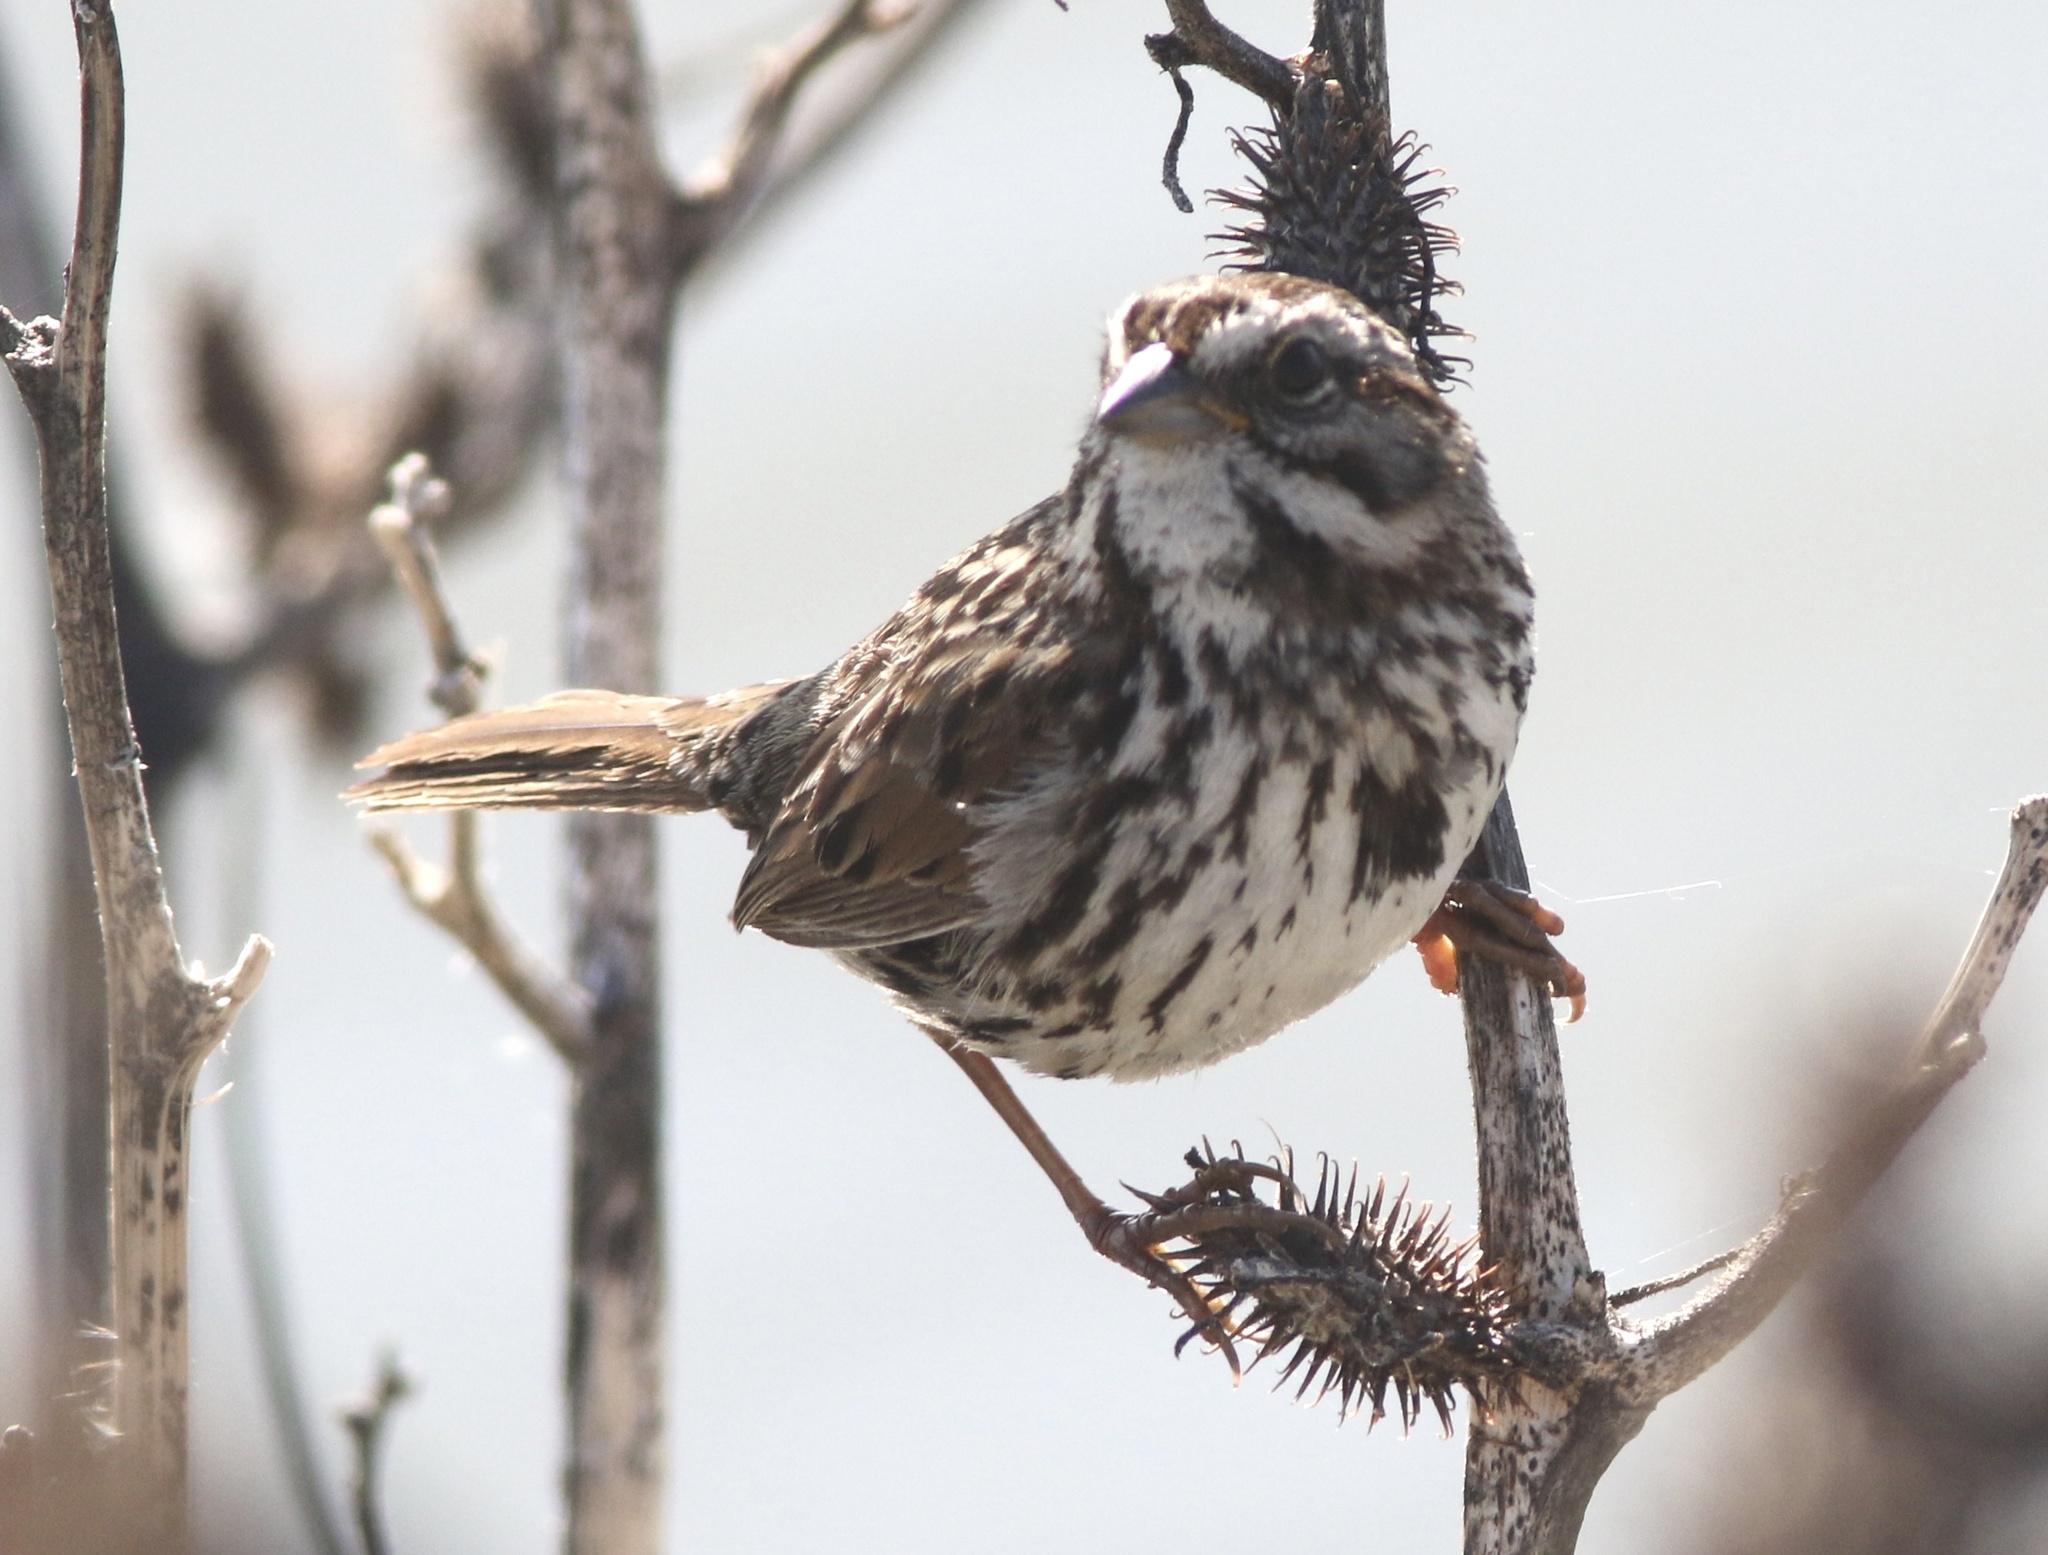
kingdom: Animalia
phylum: Chordata
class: Aves
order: Passeriformes
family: Passerellidae
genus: Melospiza
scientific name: Melospiza melodia
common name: Song sparrow
